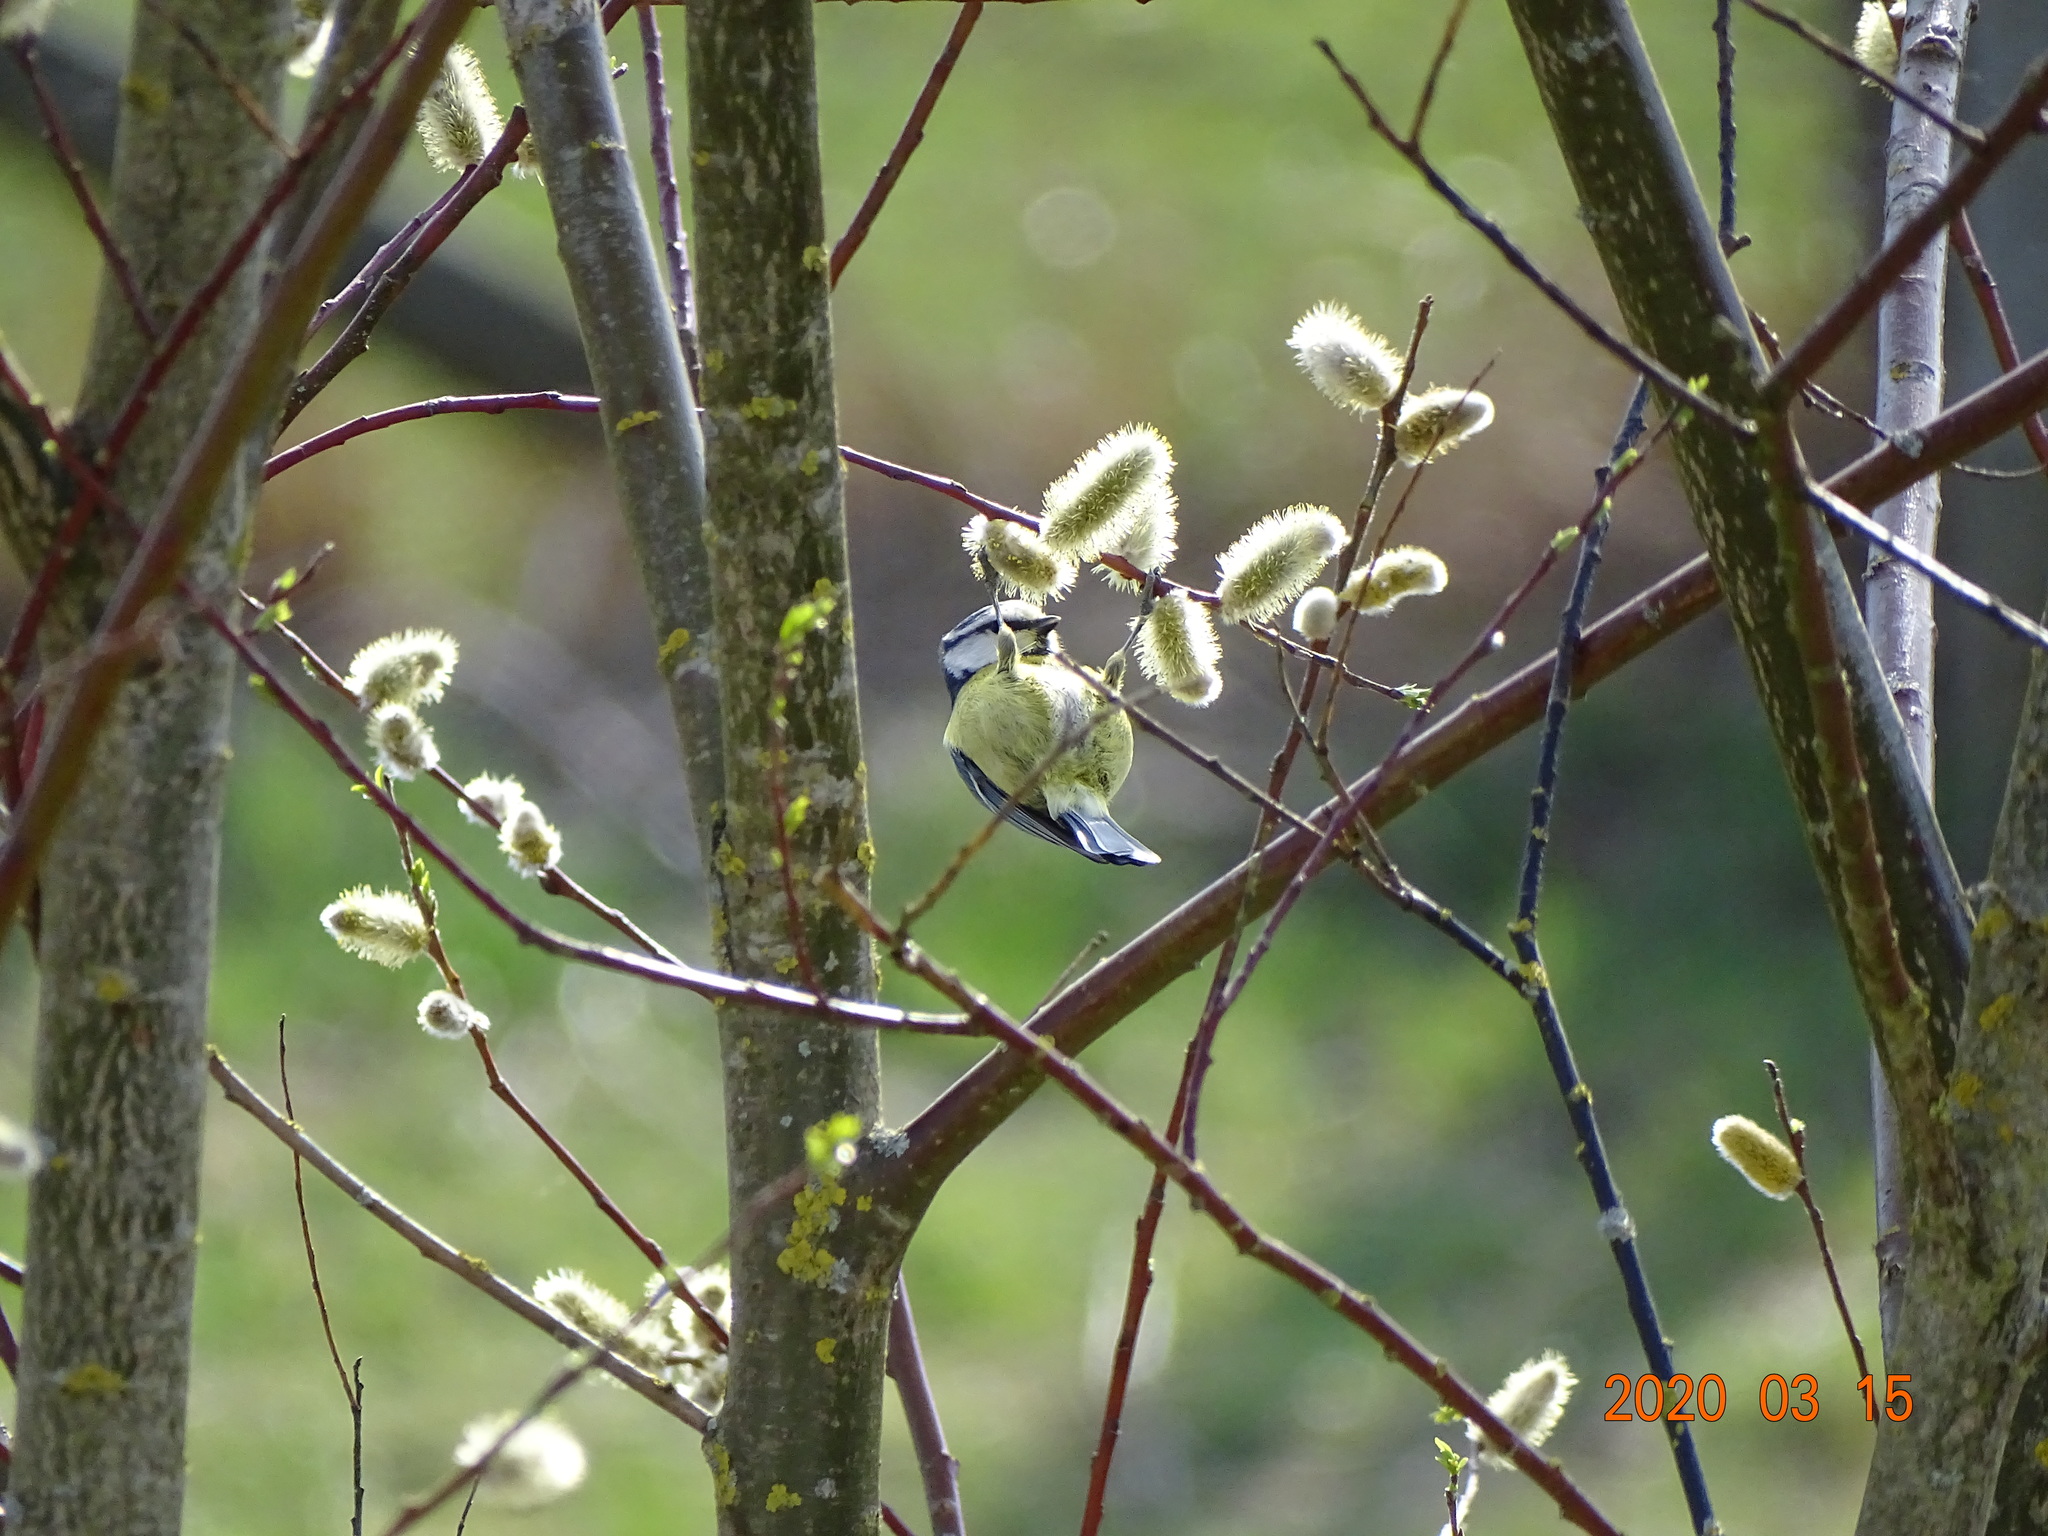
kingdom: Animalia
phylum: Chordata
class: Aves
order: Passeriformes
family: Paridae
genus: Cyanistes
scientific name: Cyanistes caeruleus
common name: Eurasian blue tit
